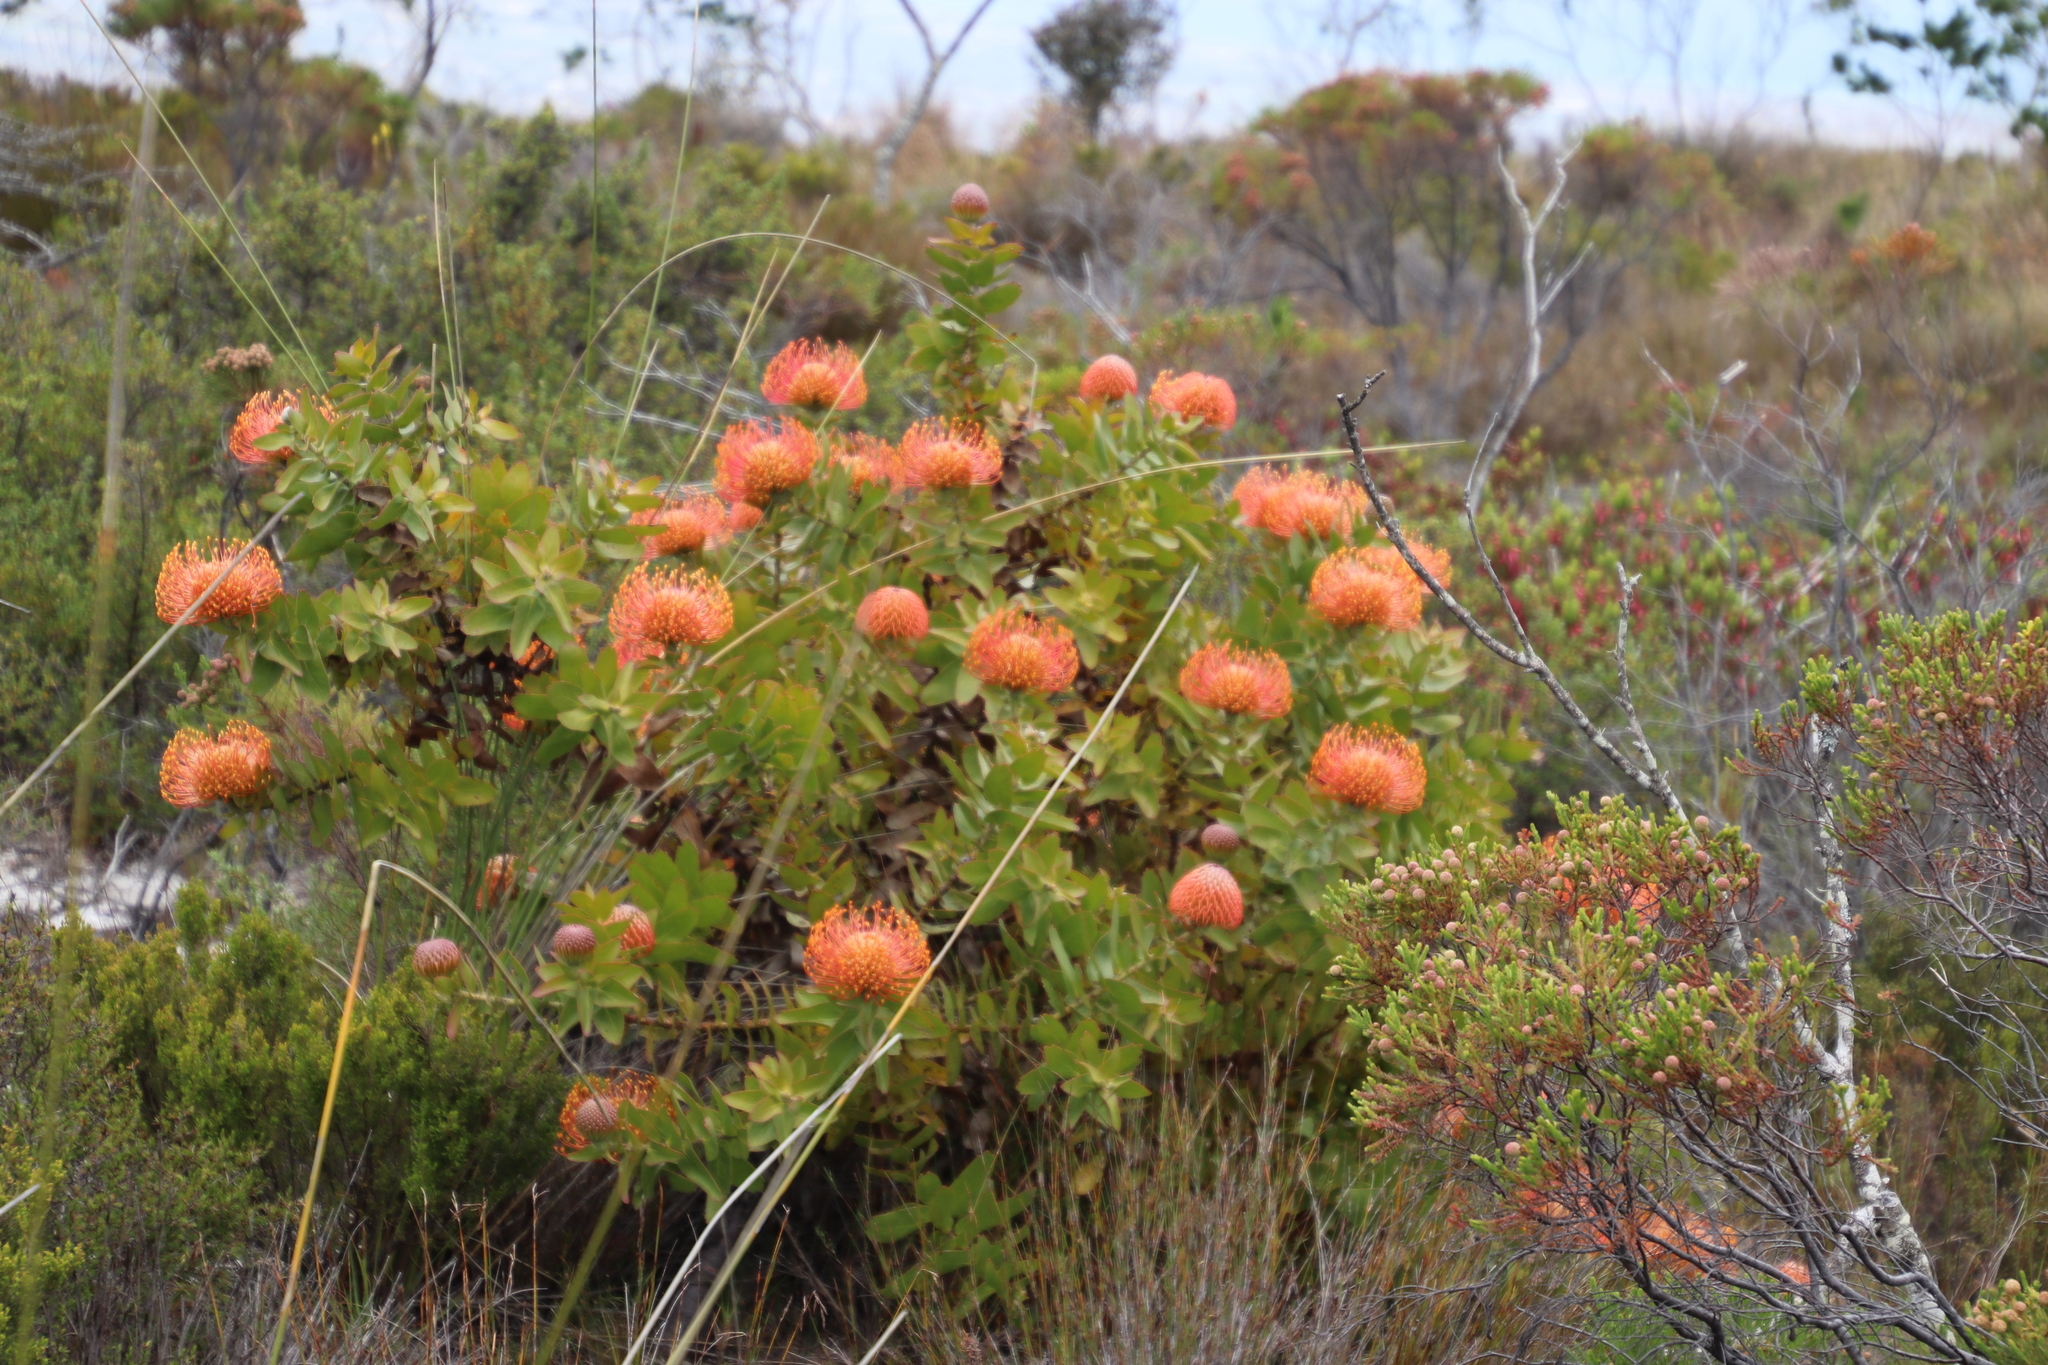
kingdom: Plantae
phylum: Tracheophyta
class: Magnoliopsida
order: Proteales
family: Proteaceae
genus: Leucospermum
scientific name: Leucospermum cordifolium
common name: Red pincushion-protea
